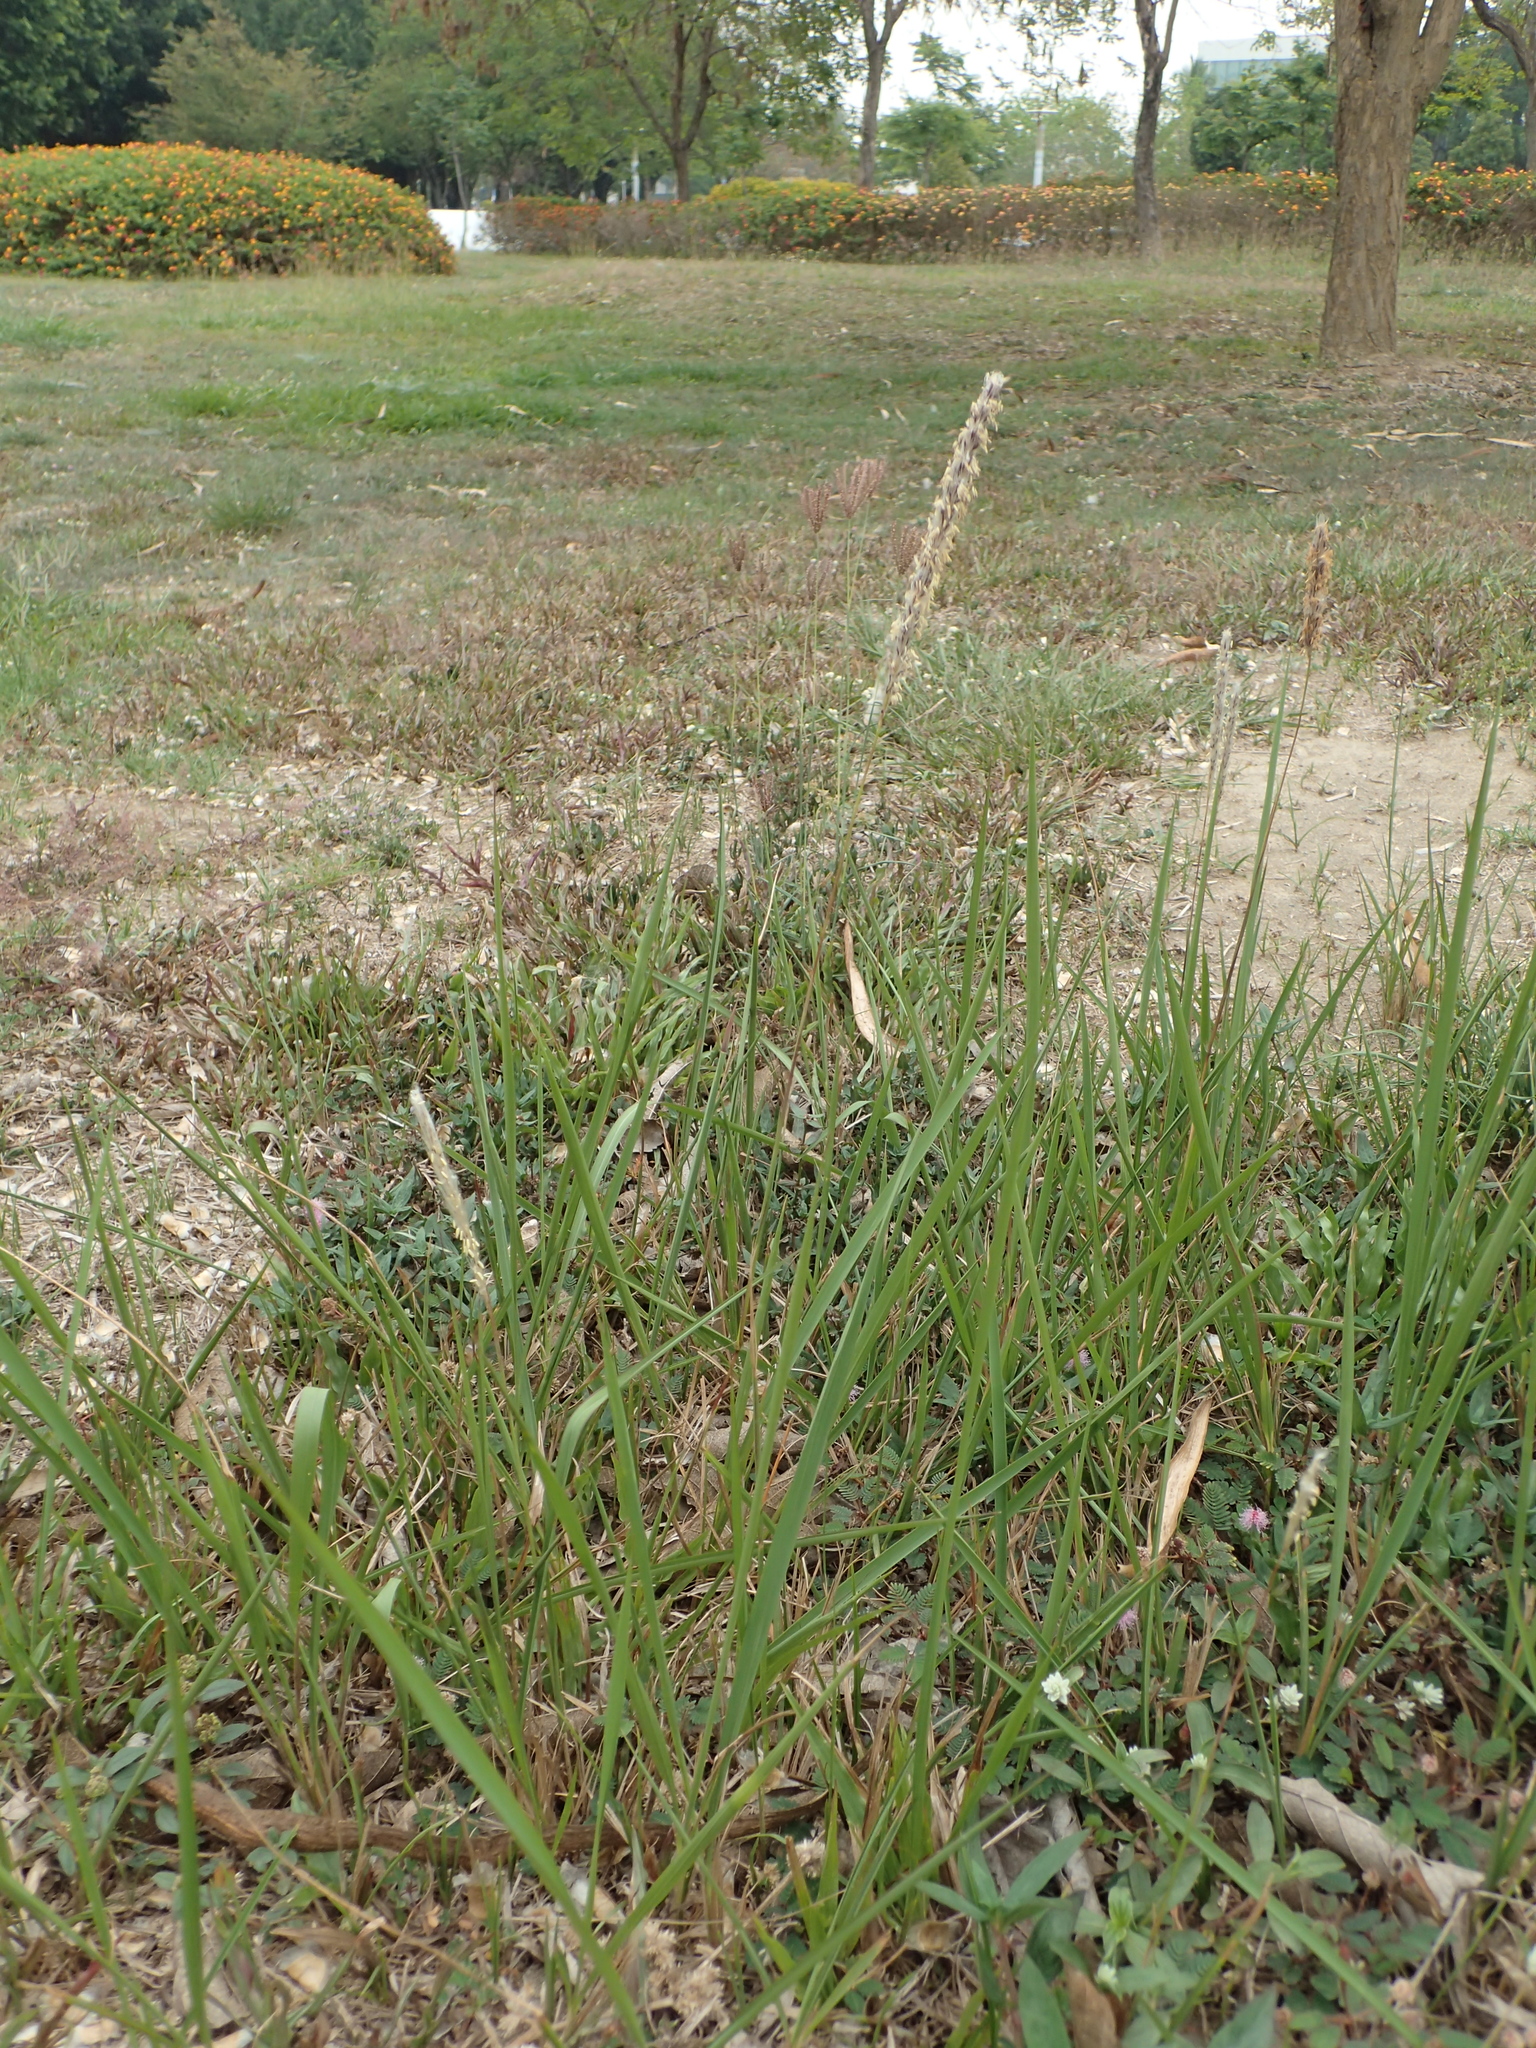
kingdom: Plantae
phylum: Tracheophyta
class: Liliopsida
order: Poales
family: Poaceae
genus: Imperata
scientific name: Imperata cylindrica
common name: Cogongrass
